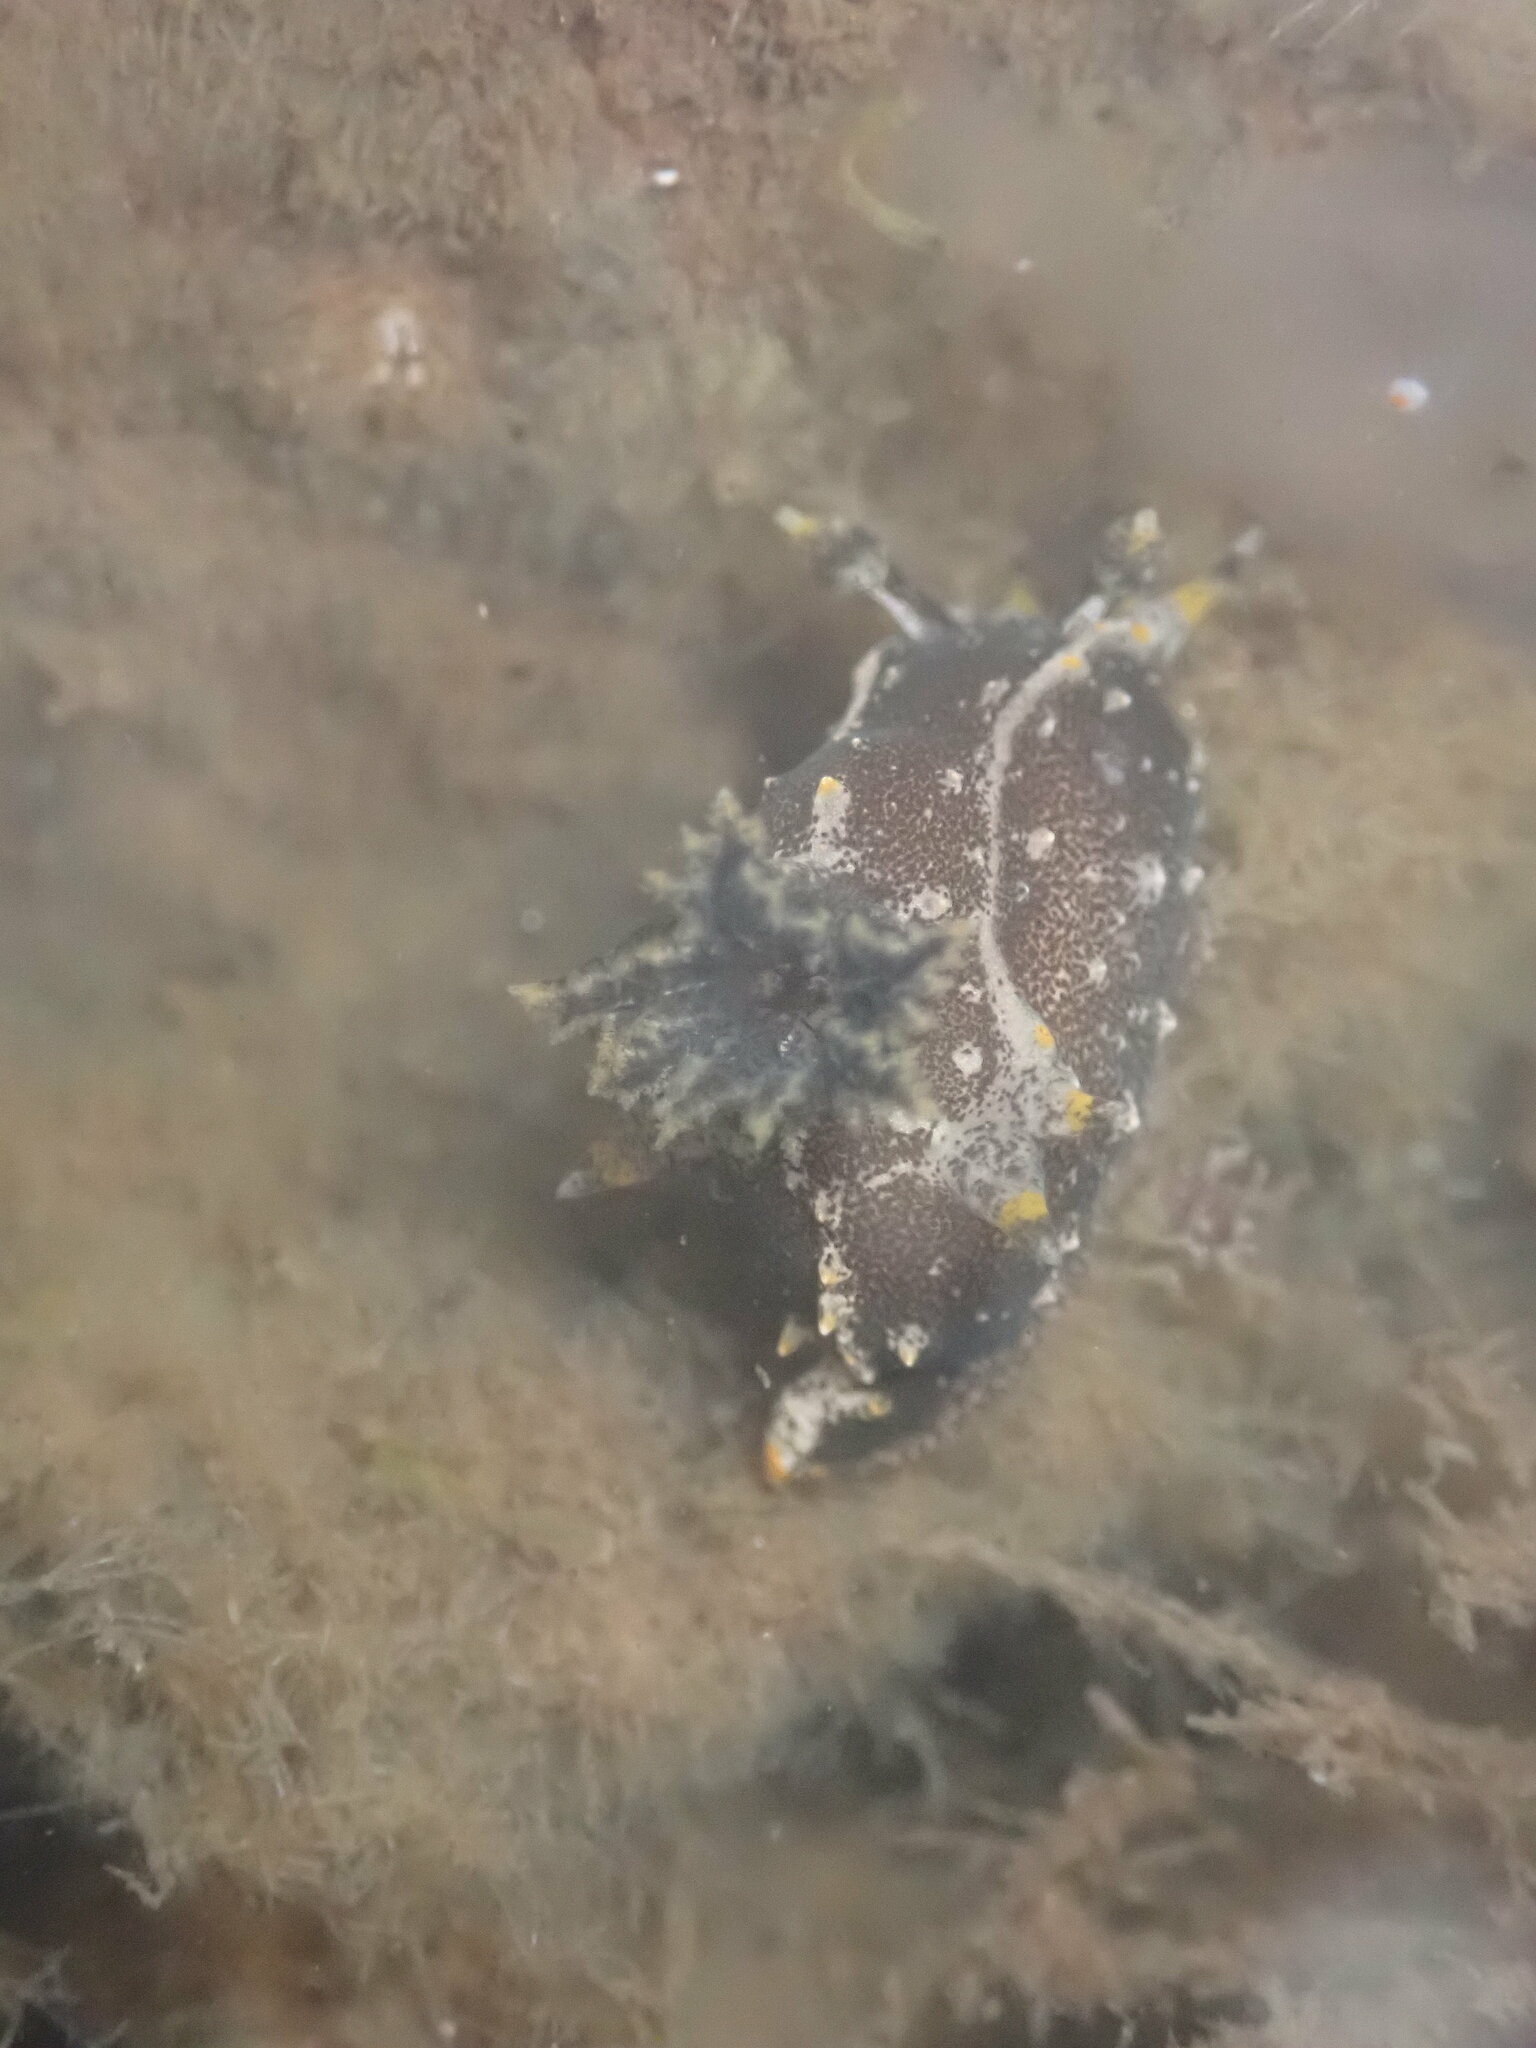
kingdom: Animalia
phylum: Mollusca
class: Gastropoda
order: Nudibranchia
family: Polyceridae
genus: Polycera
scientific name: Polycera hedgpethi
